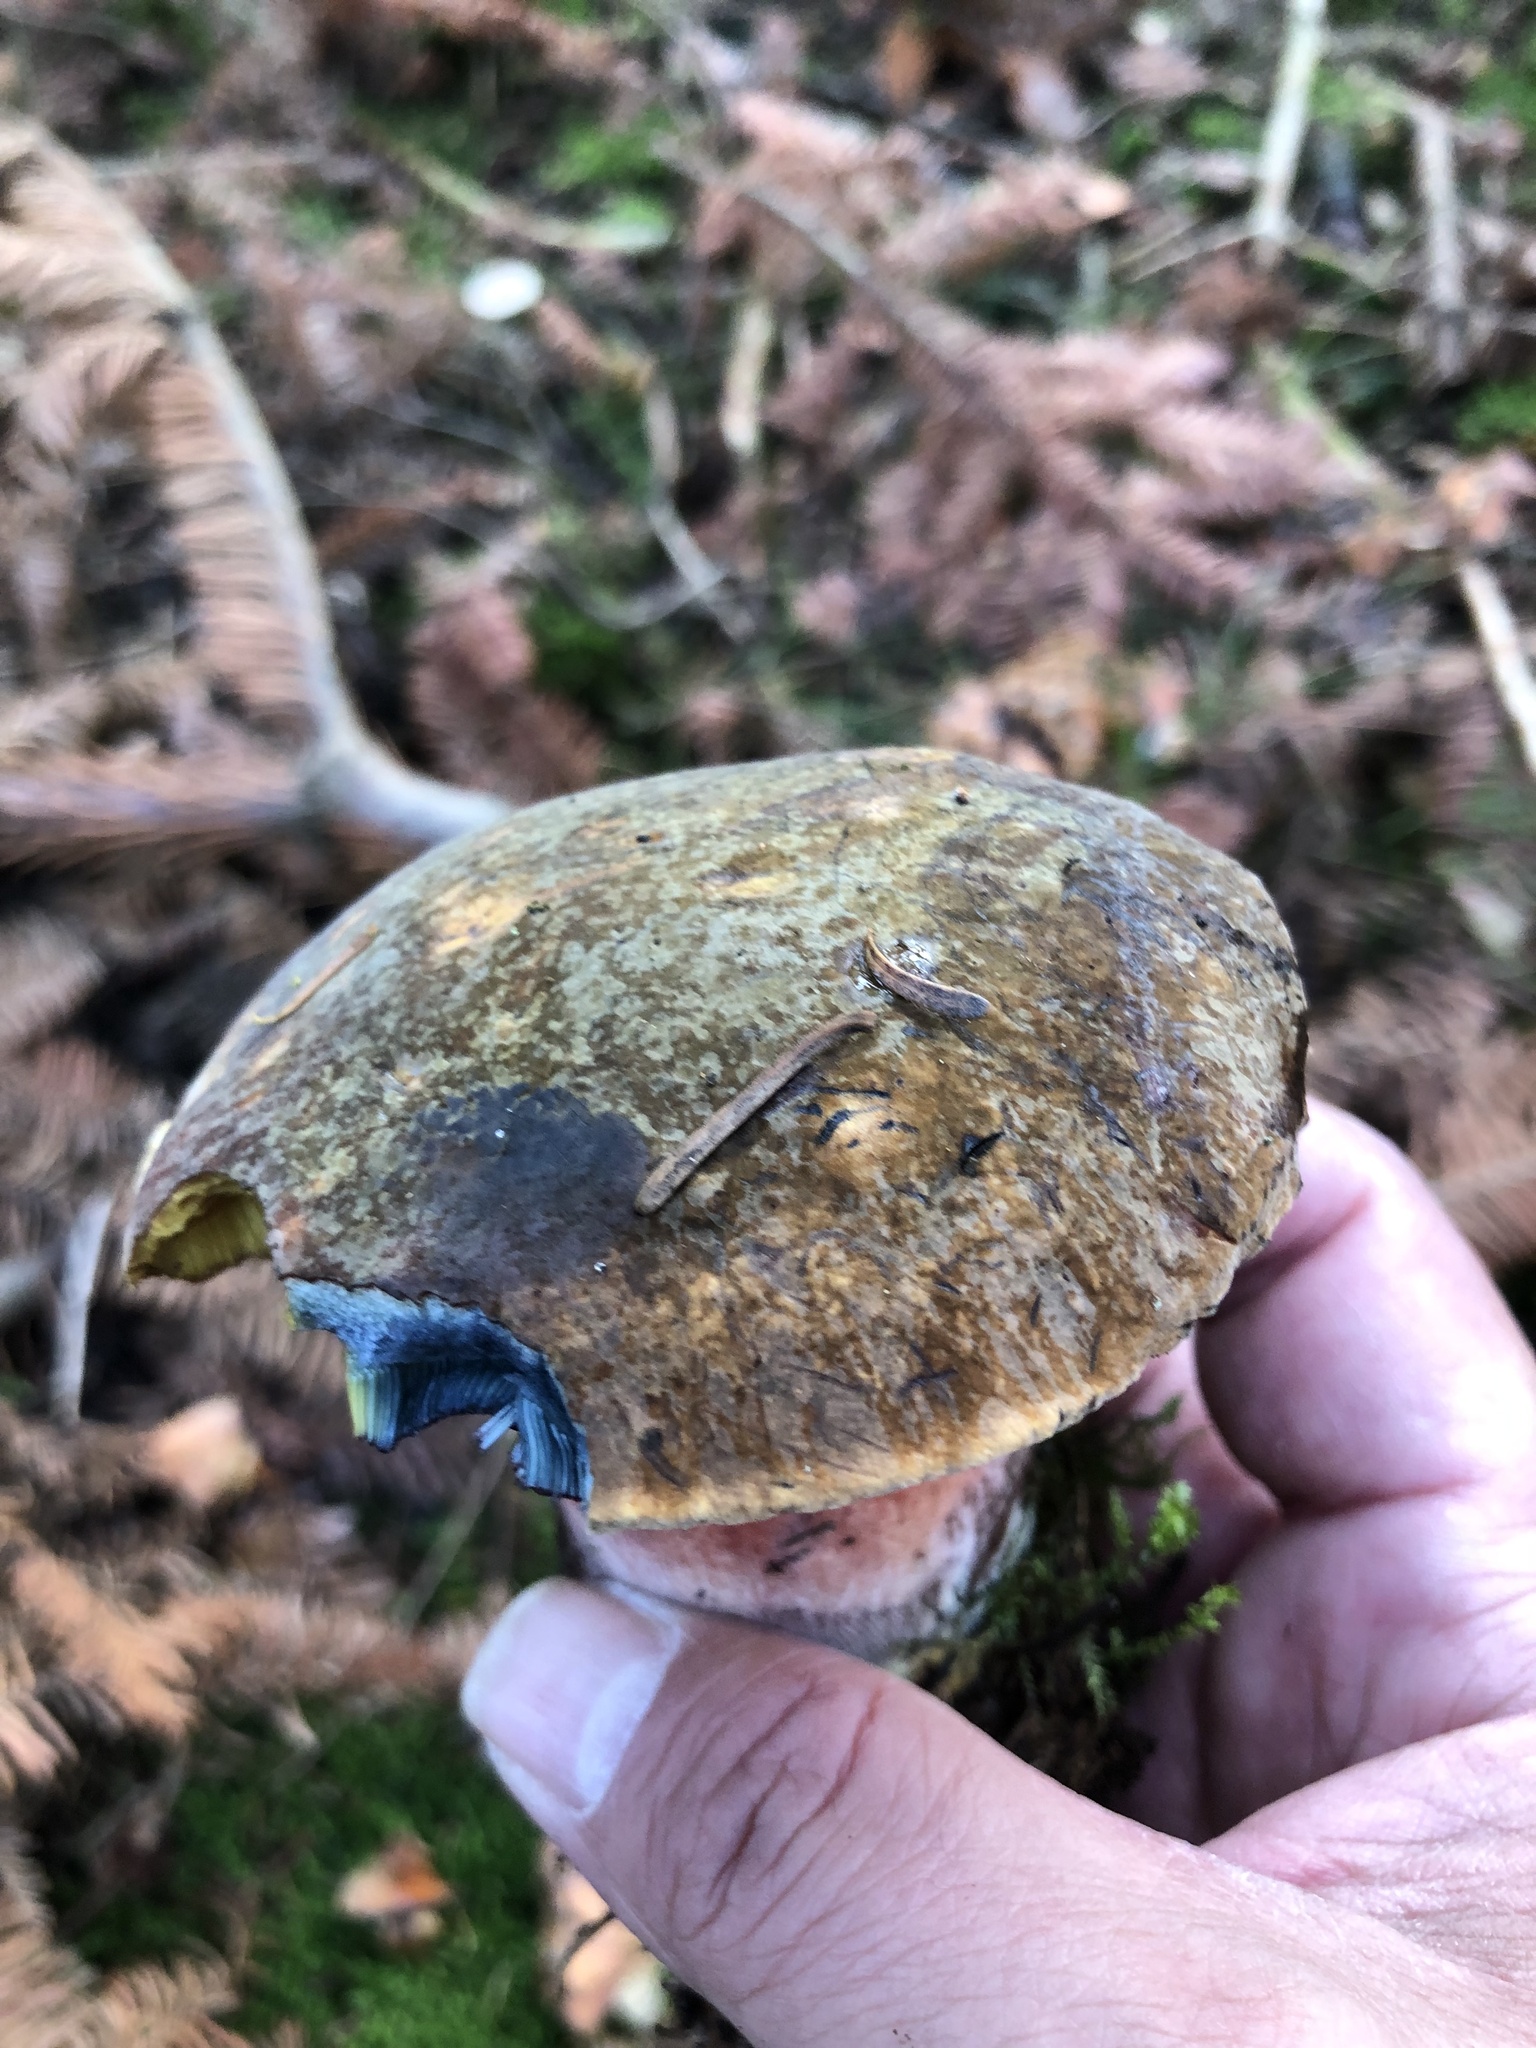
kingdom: Fungi
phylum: Basidiomycota
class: Agaricomycetes
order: Boletales
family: Boletaceae
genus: Neoboletus
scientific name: Neoboletus luridiformis
